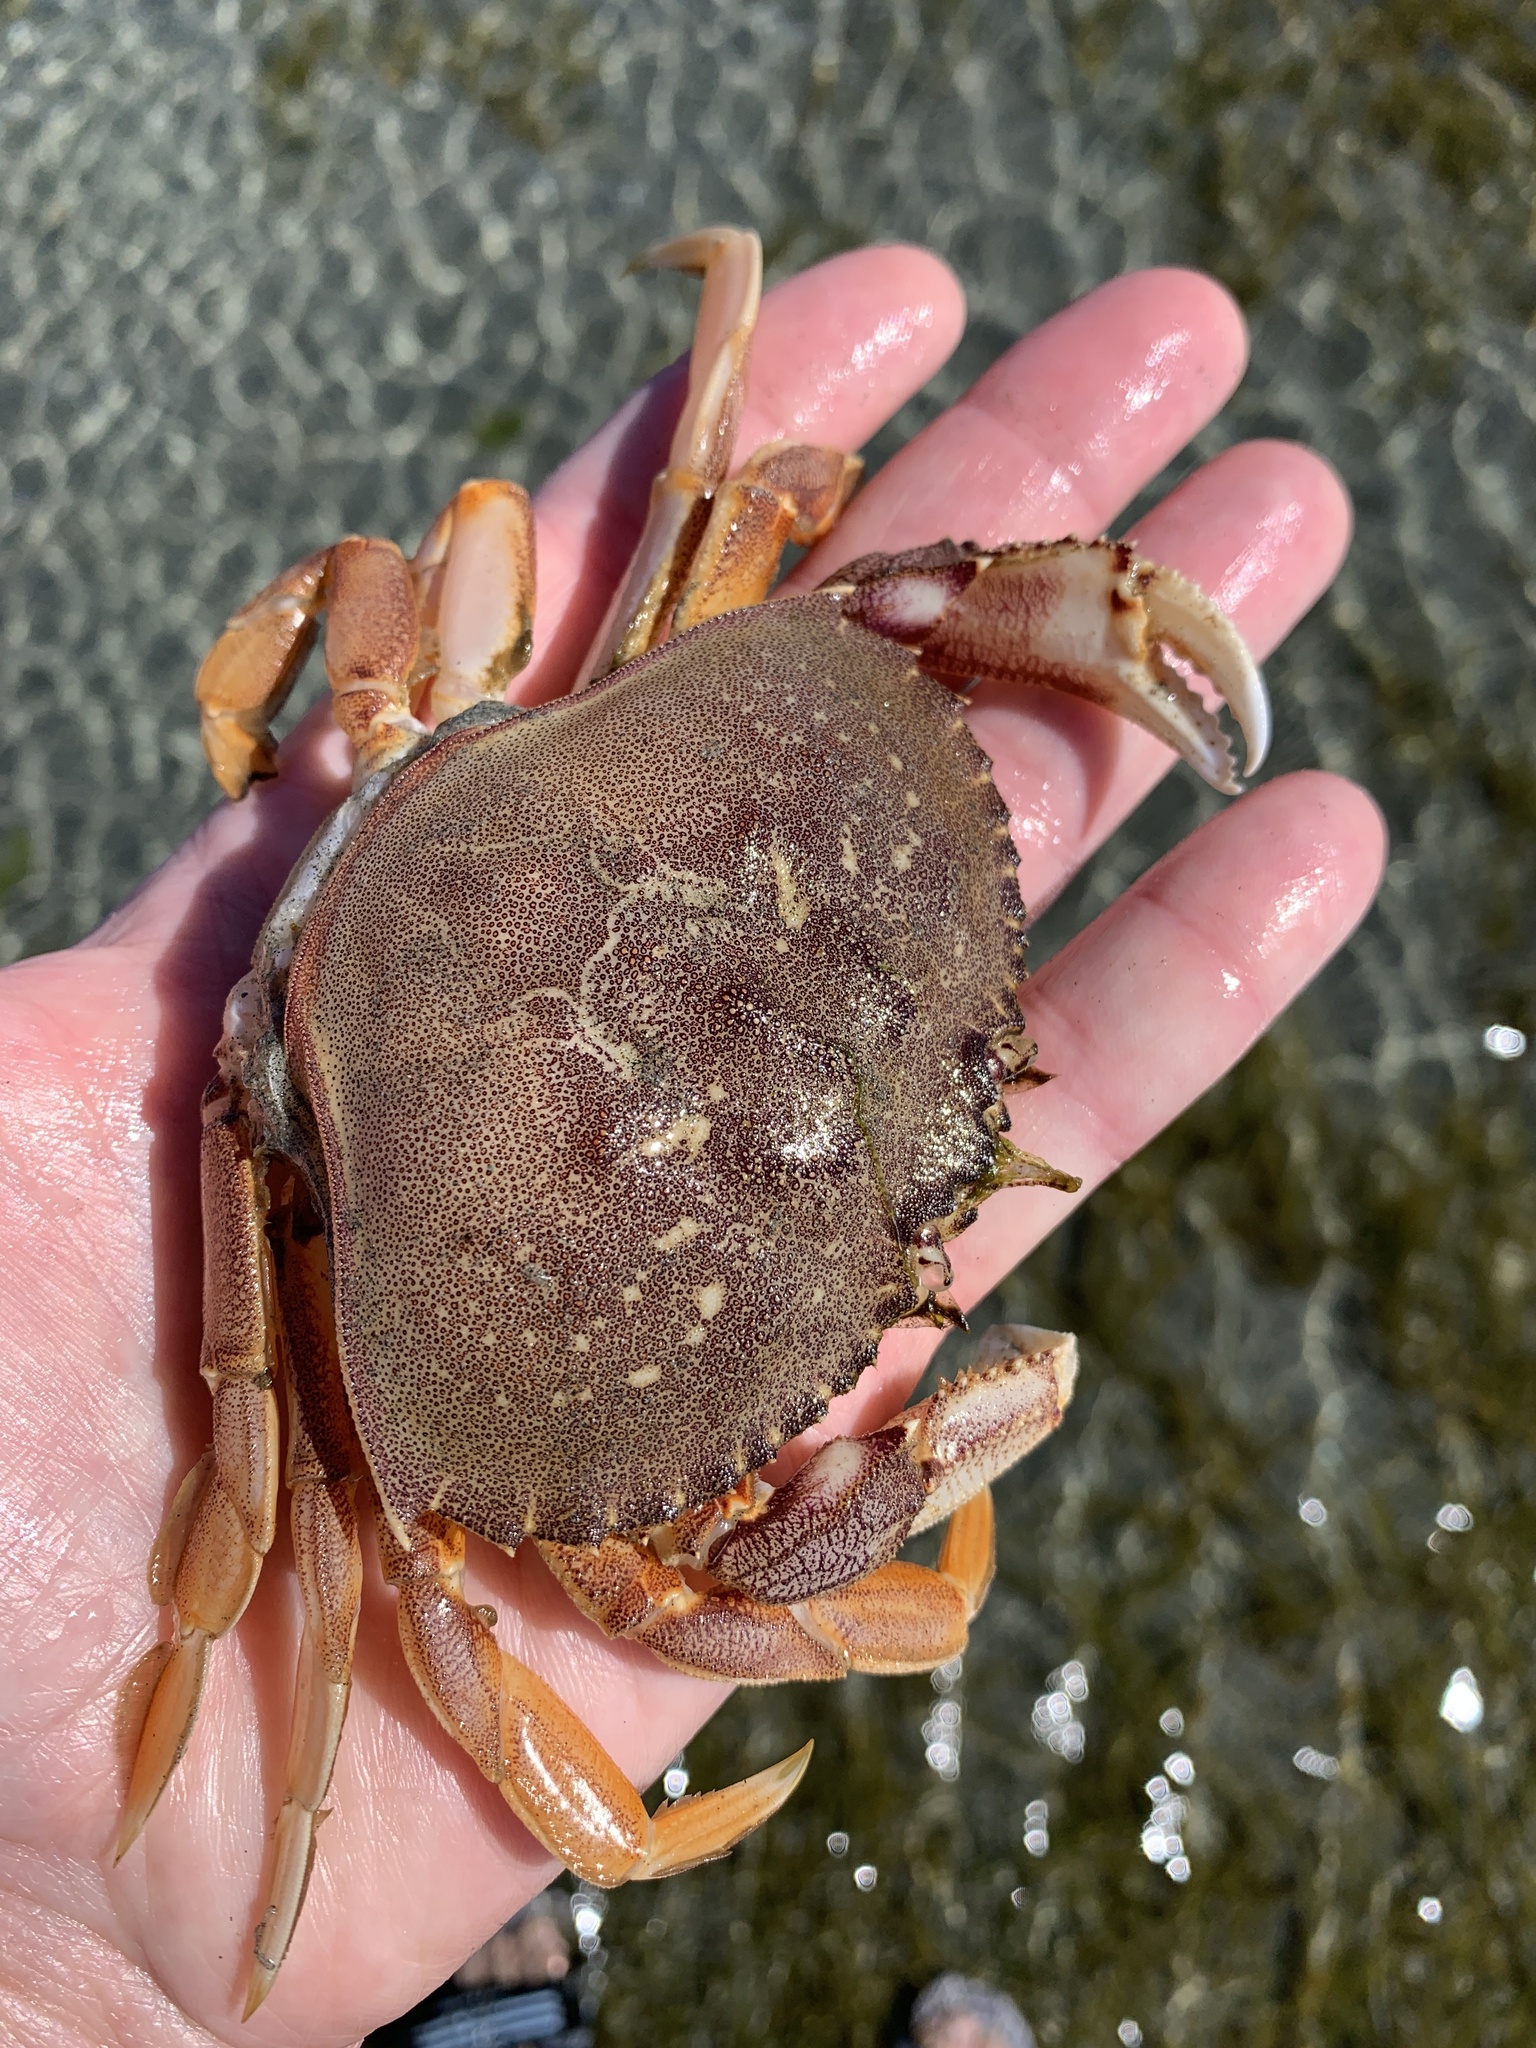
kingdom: Animalia
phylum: Arthropoda
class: Malacostraca
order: Decapoda
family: Cancridae
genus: Metacarcinus
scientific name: Metacarcinus magister
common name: Californian crab
